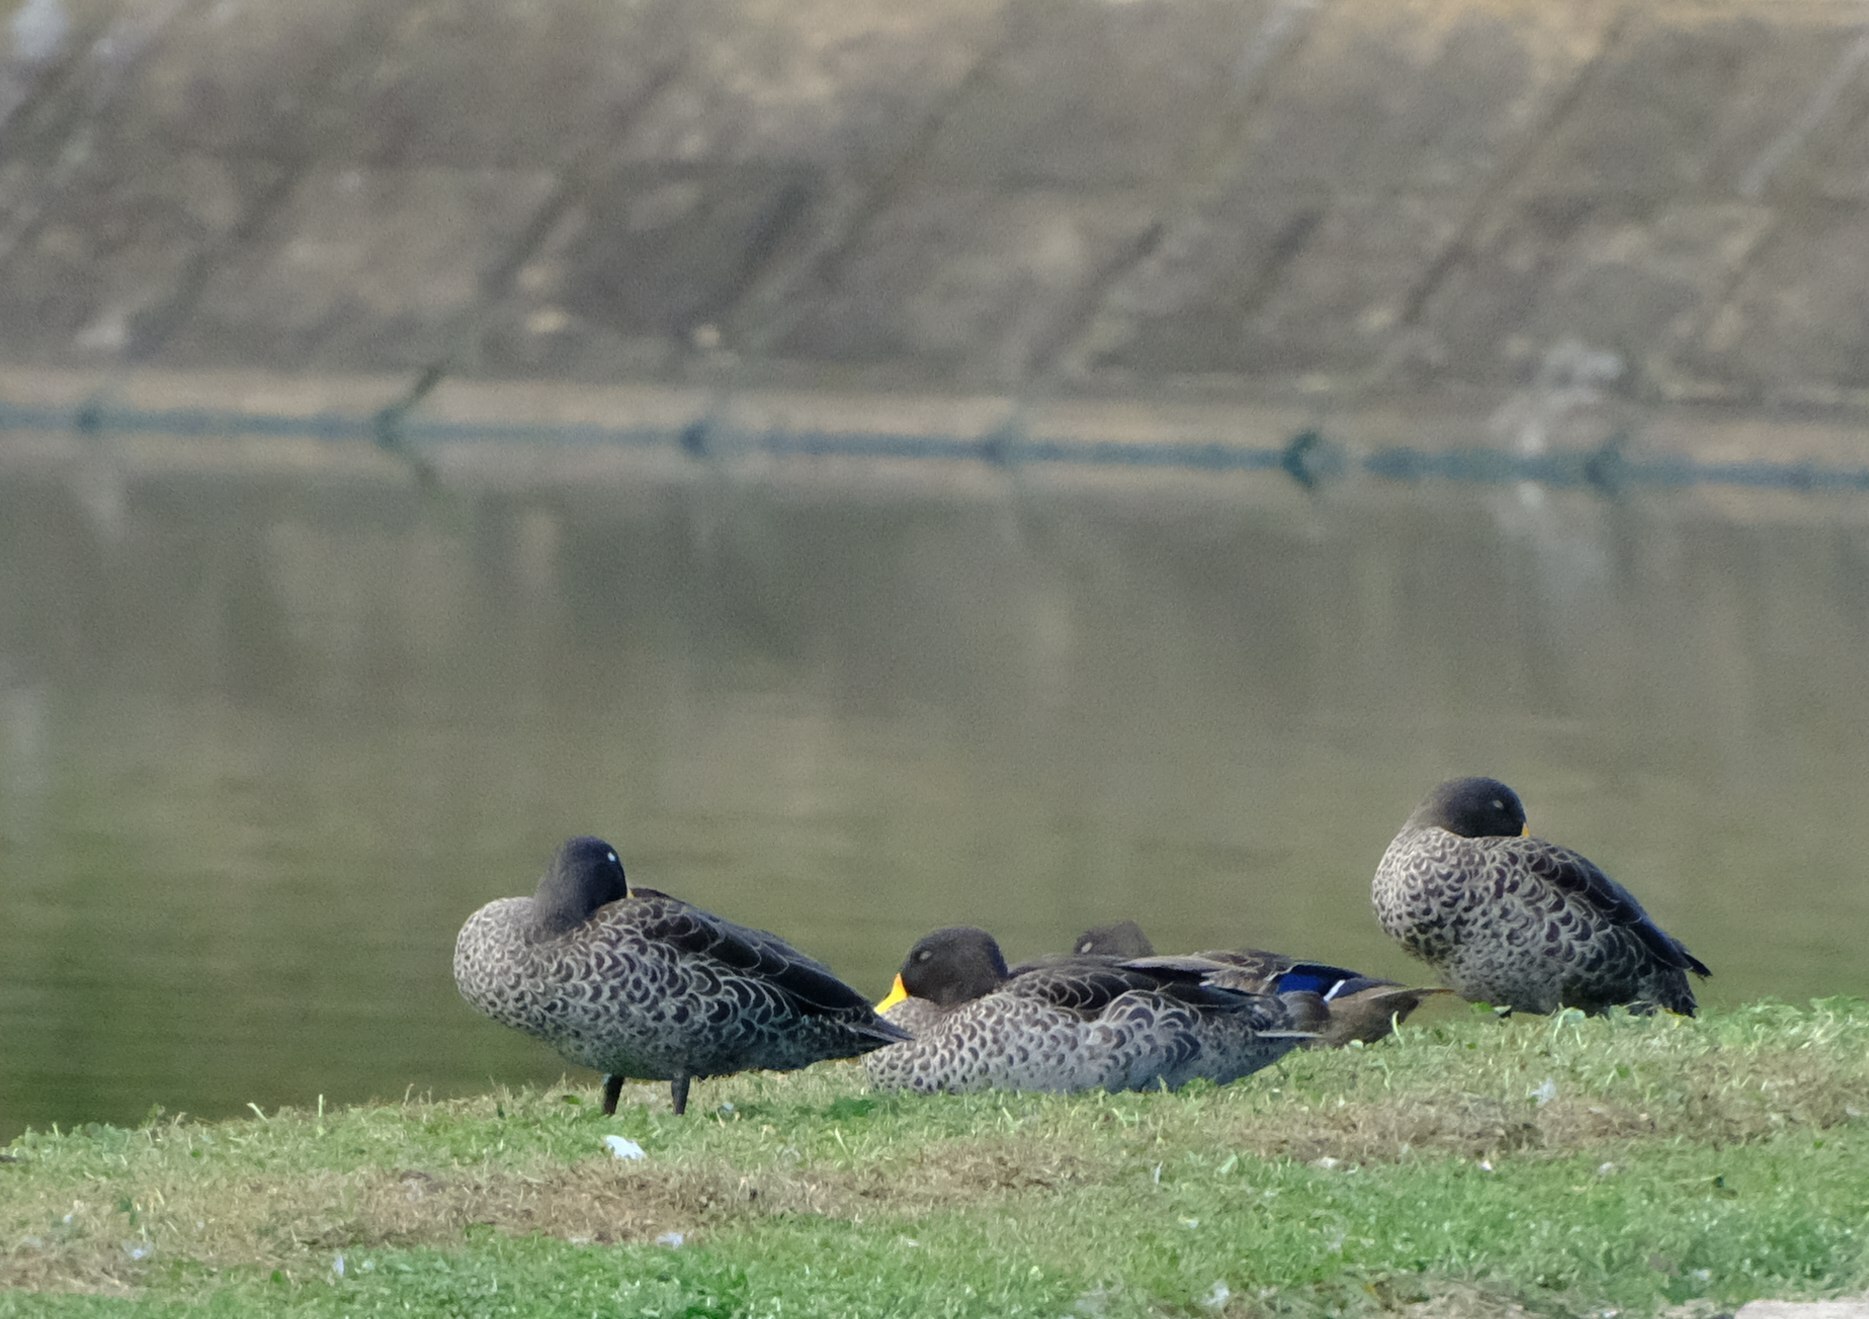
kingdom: Animalia
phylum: Chordata
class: Aves
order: Anseriformes
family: Anatidae
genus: Anas
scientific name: Anas undulata
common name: Yellow-billed duck
